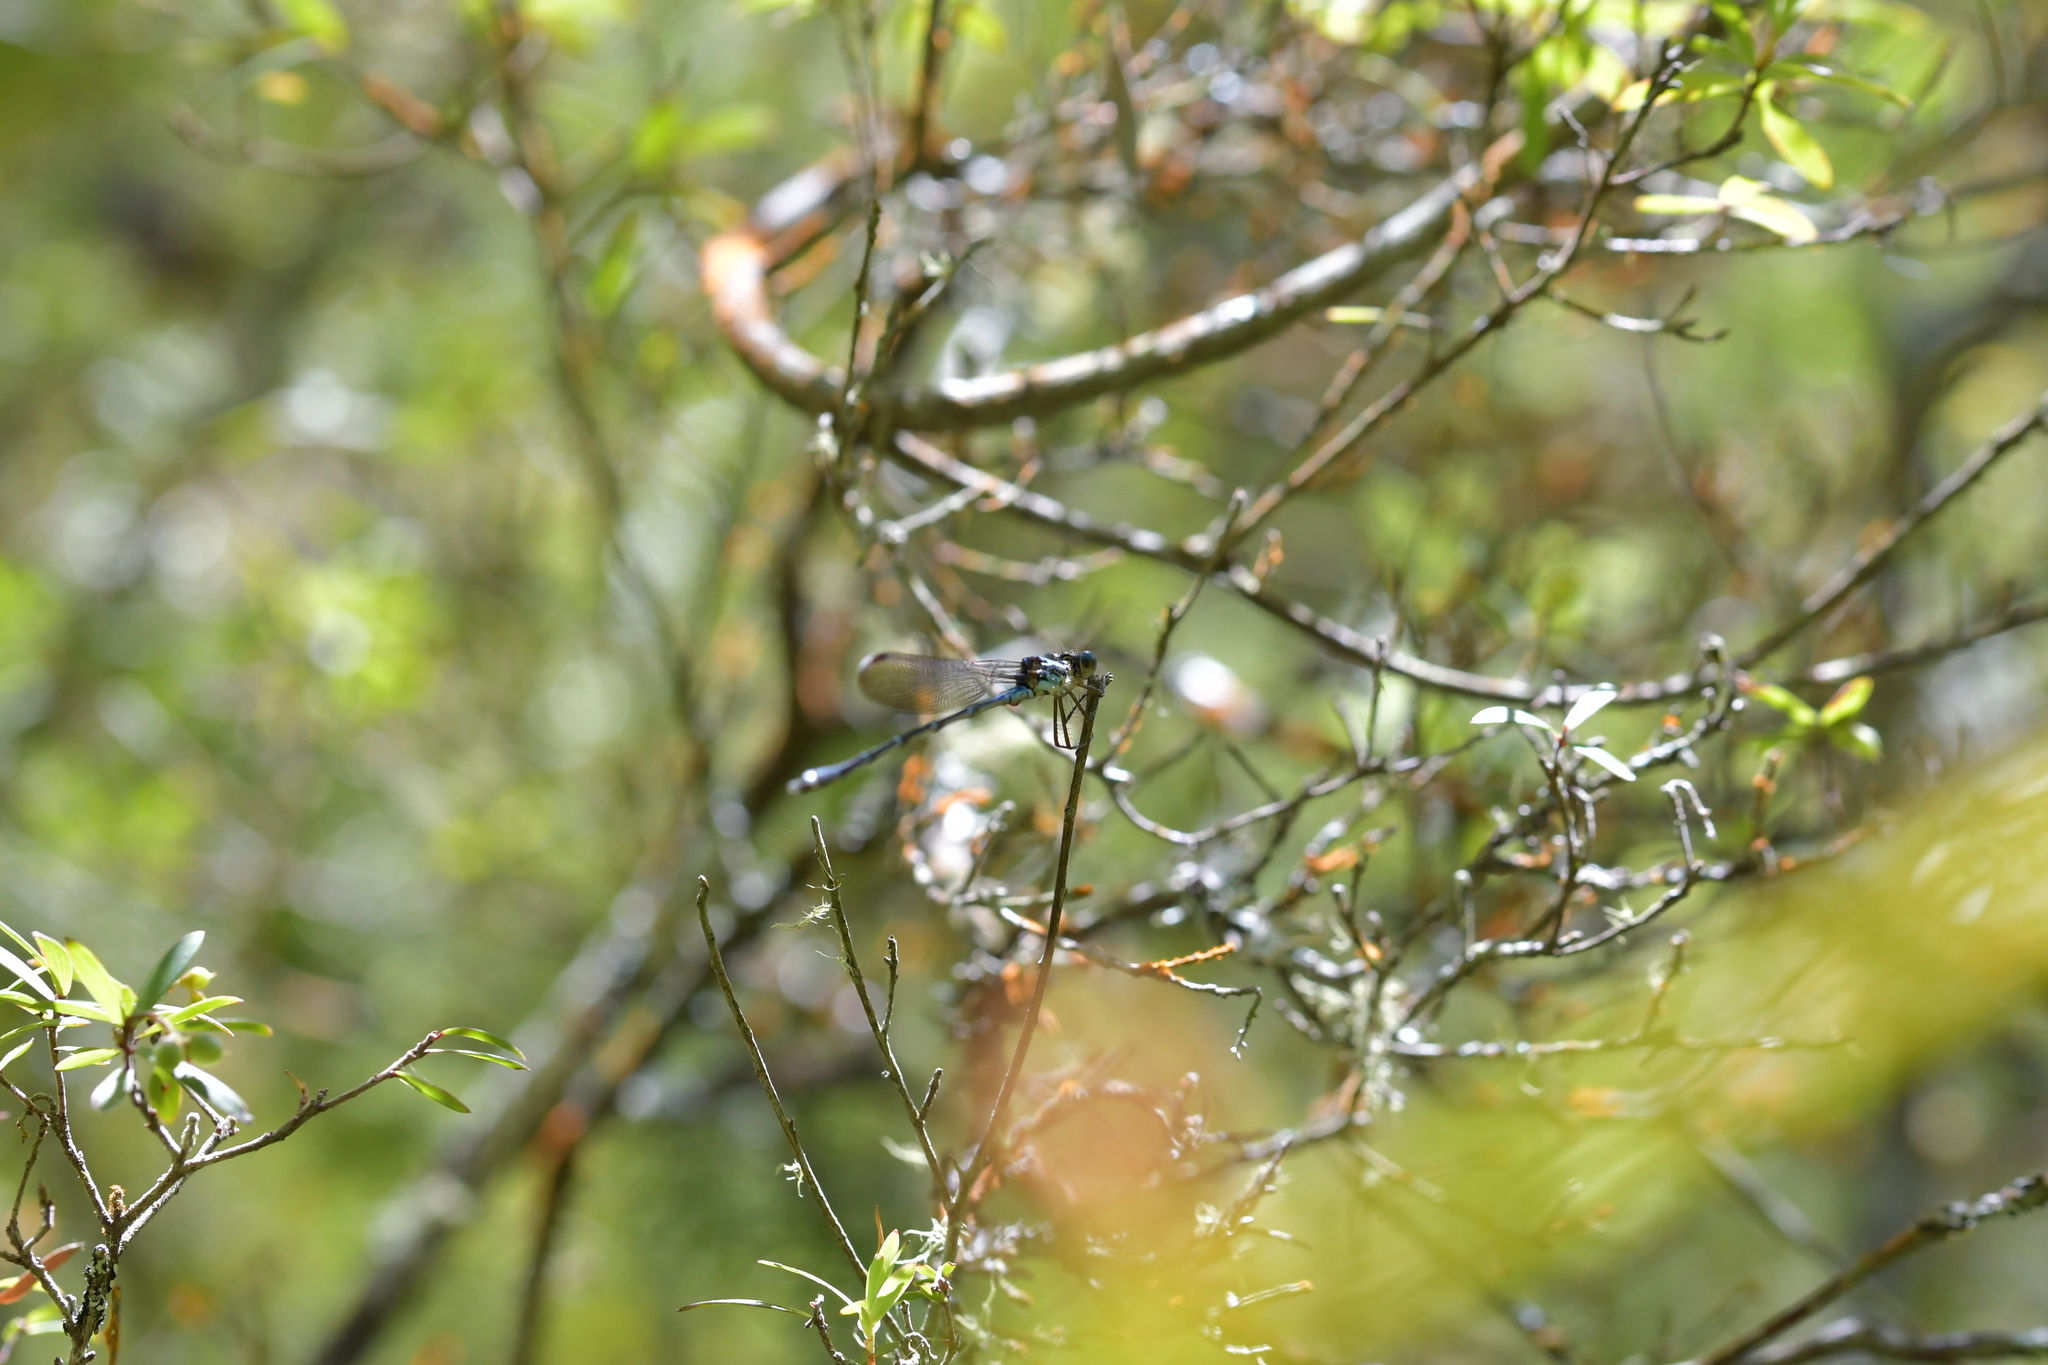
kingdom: Animalia
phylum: Arthropoda
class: Insecta
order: Odonata
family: Lestidae
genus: Austrolestes
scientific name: Austrolestes colensonis
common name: Blue damselfly
